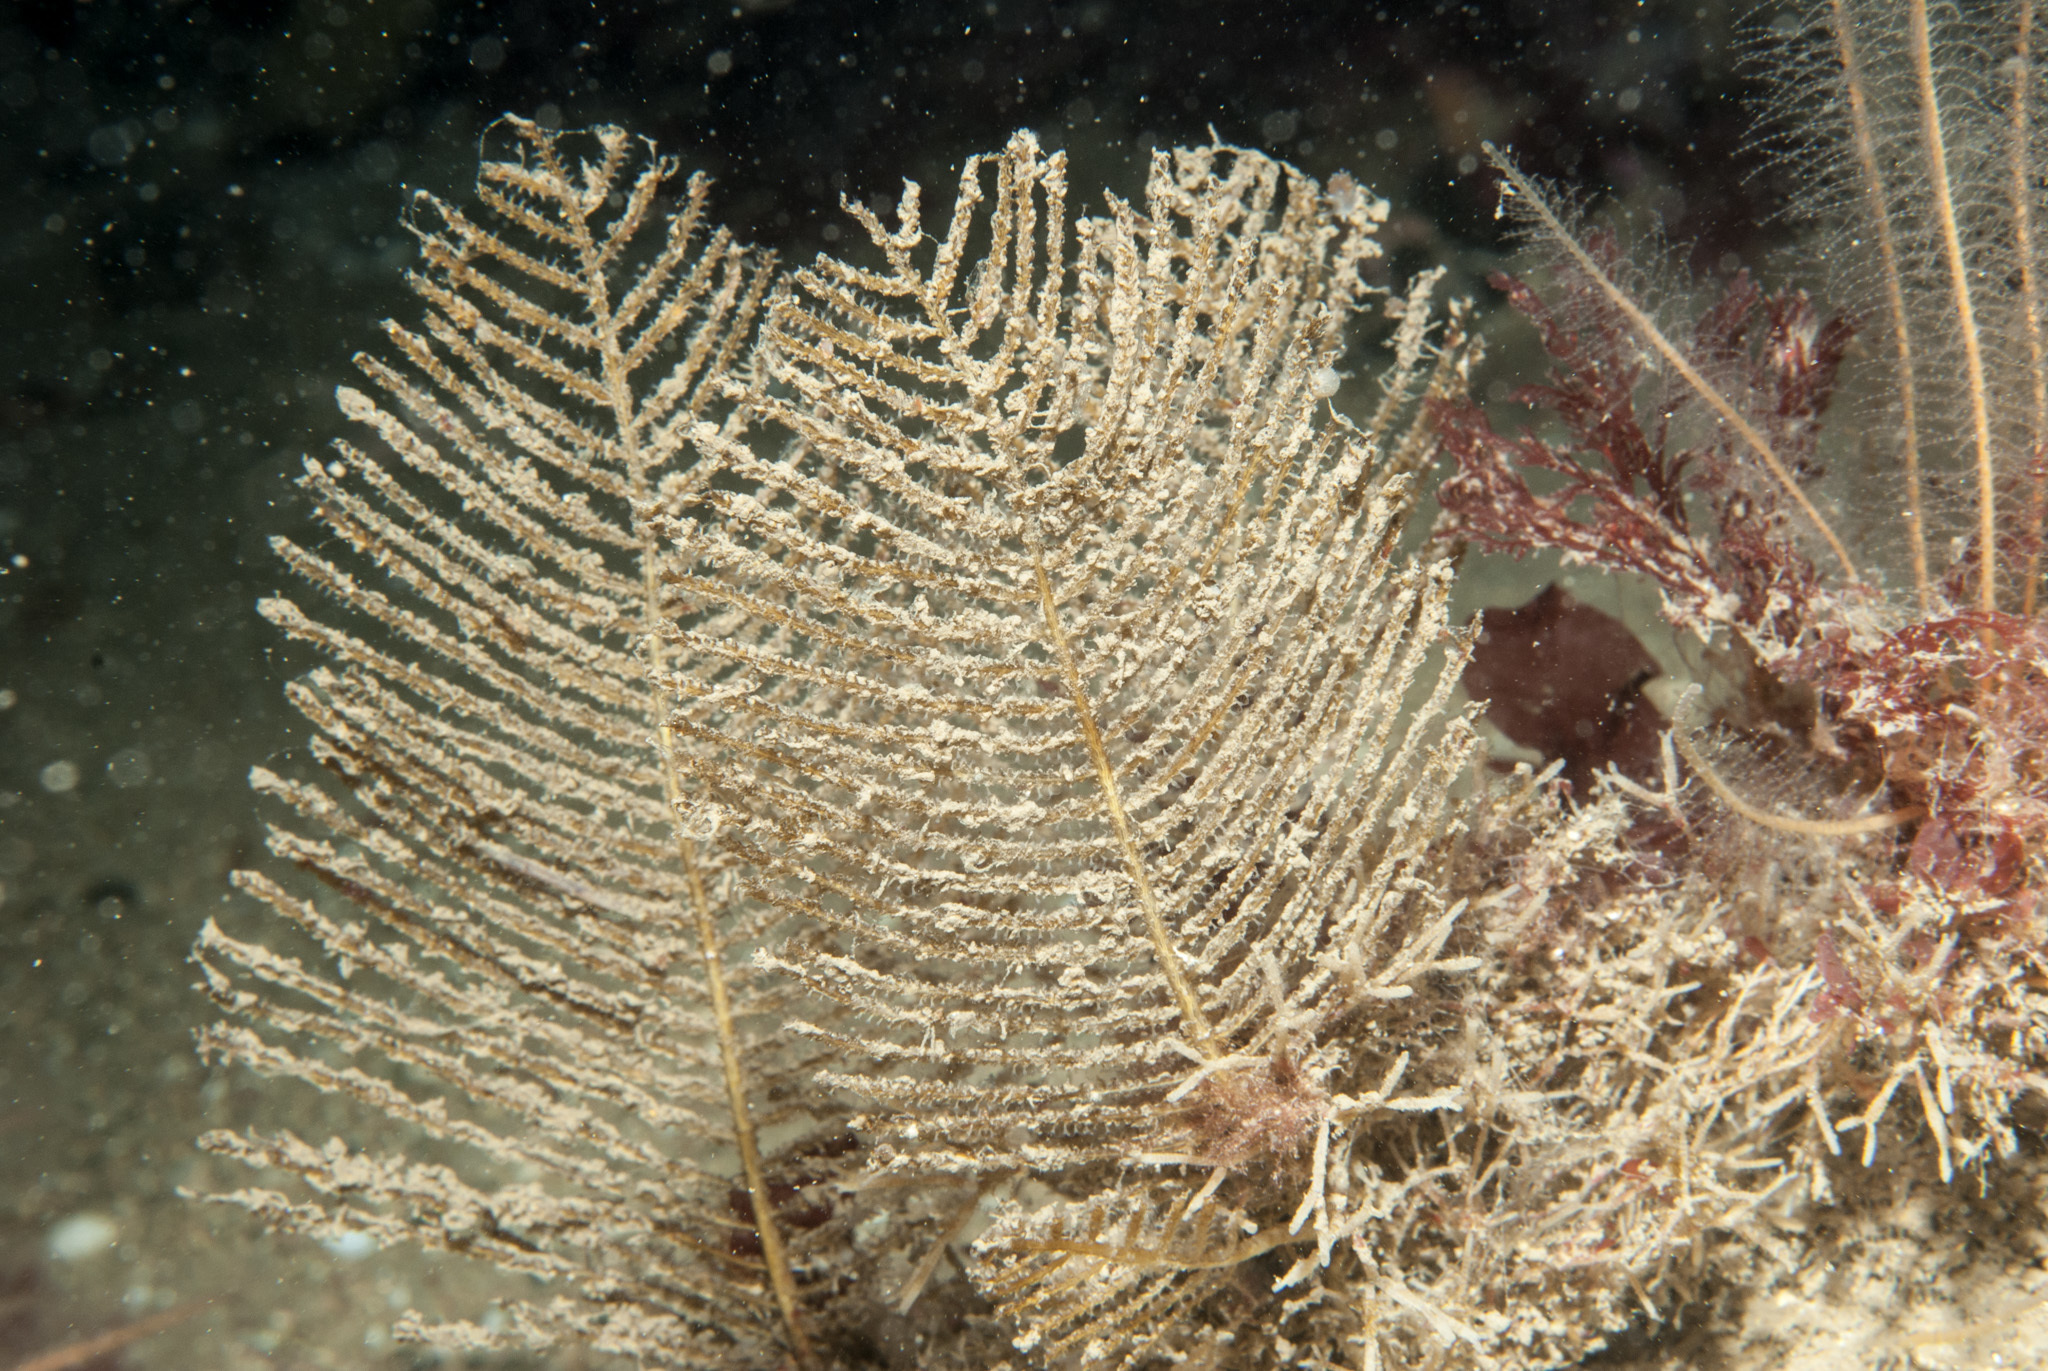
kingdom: Animalia
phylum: Cnidaria
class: Hydrozoa
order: Leptothecata
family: Sertulariidae
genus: Thuiaria
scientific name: Thuiaria articulata
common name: Sea spleenwort
